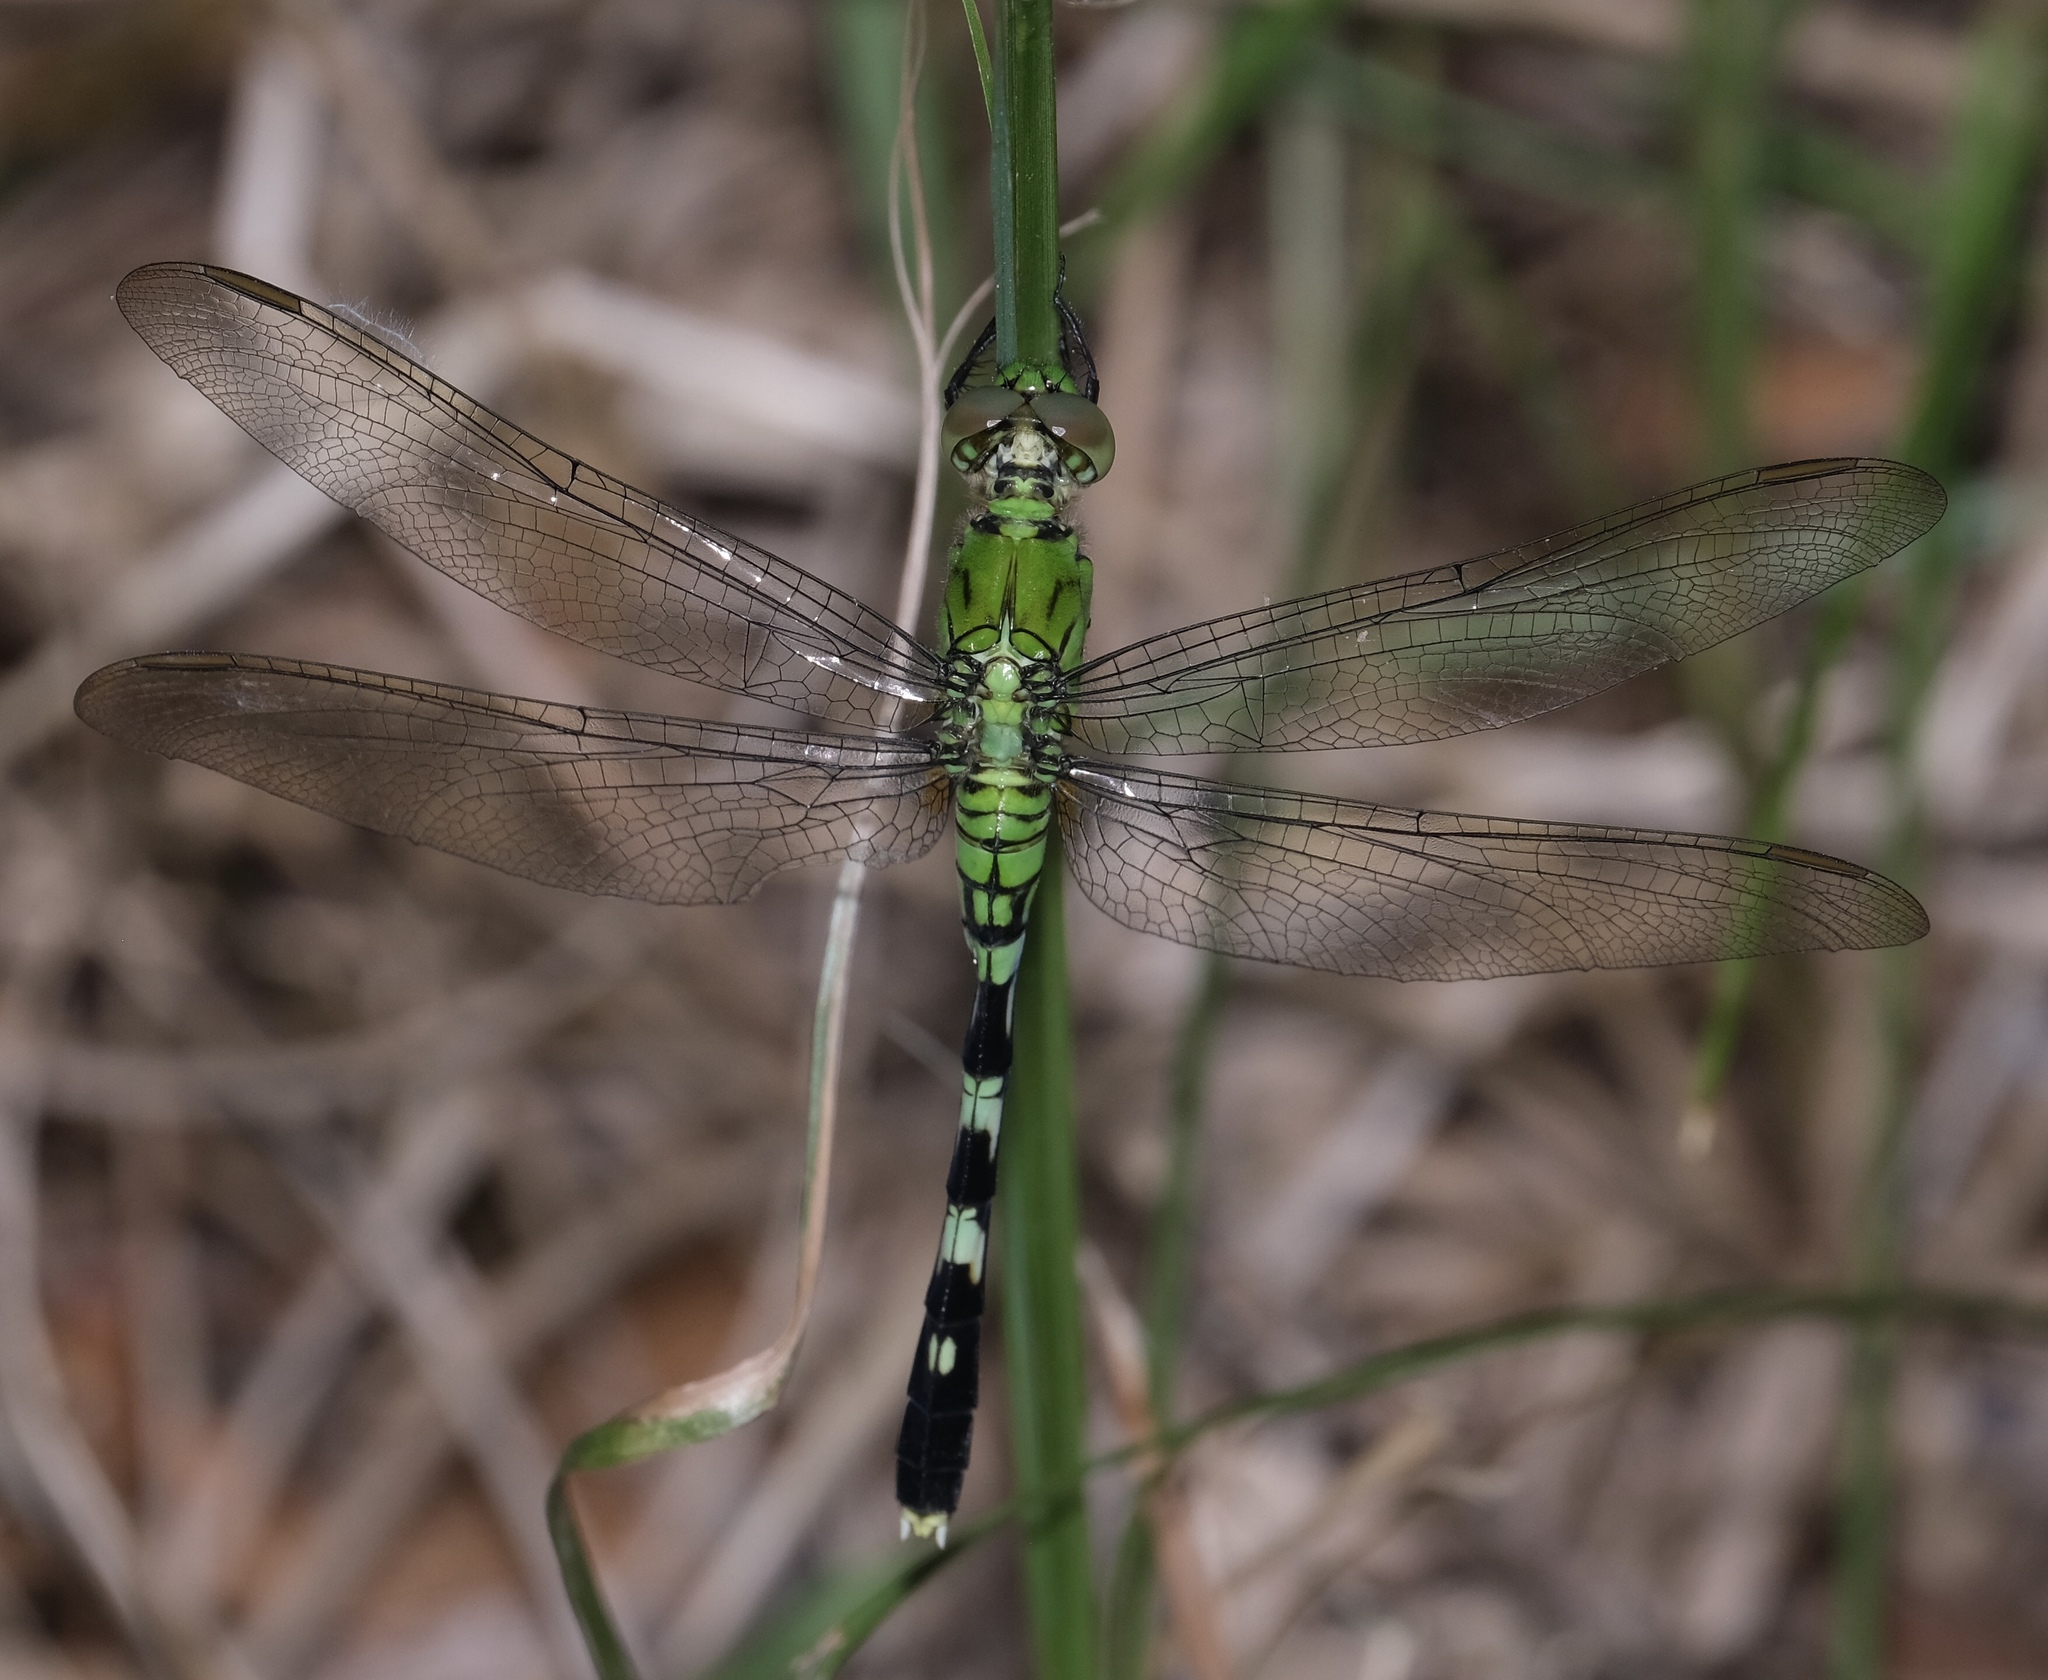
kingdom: Animalia
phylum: Arthropoda
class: Insecta
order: Odonata
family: Libellulidae
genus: Erythemis
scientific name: Erythemis simplicicollis
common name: Eastern pondhawk
